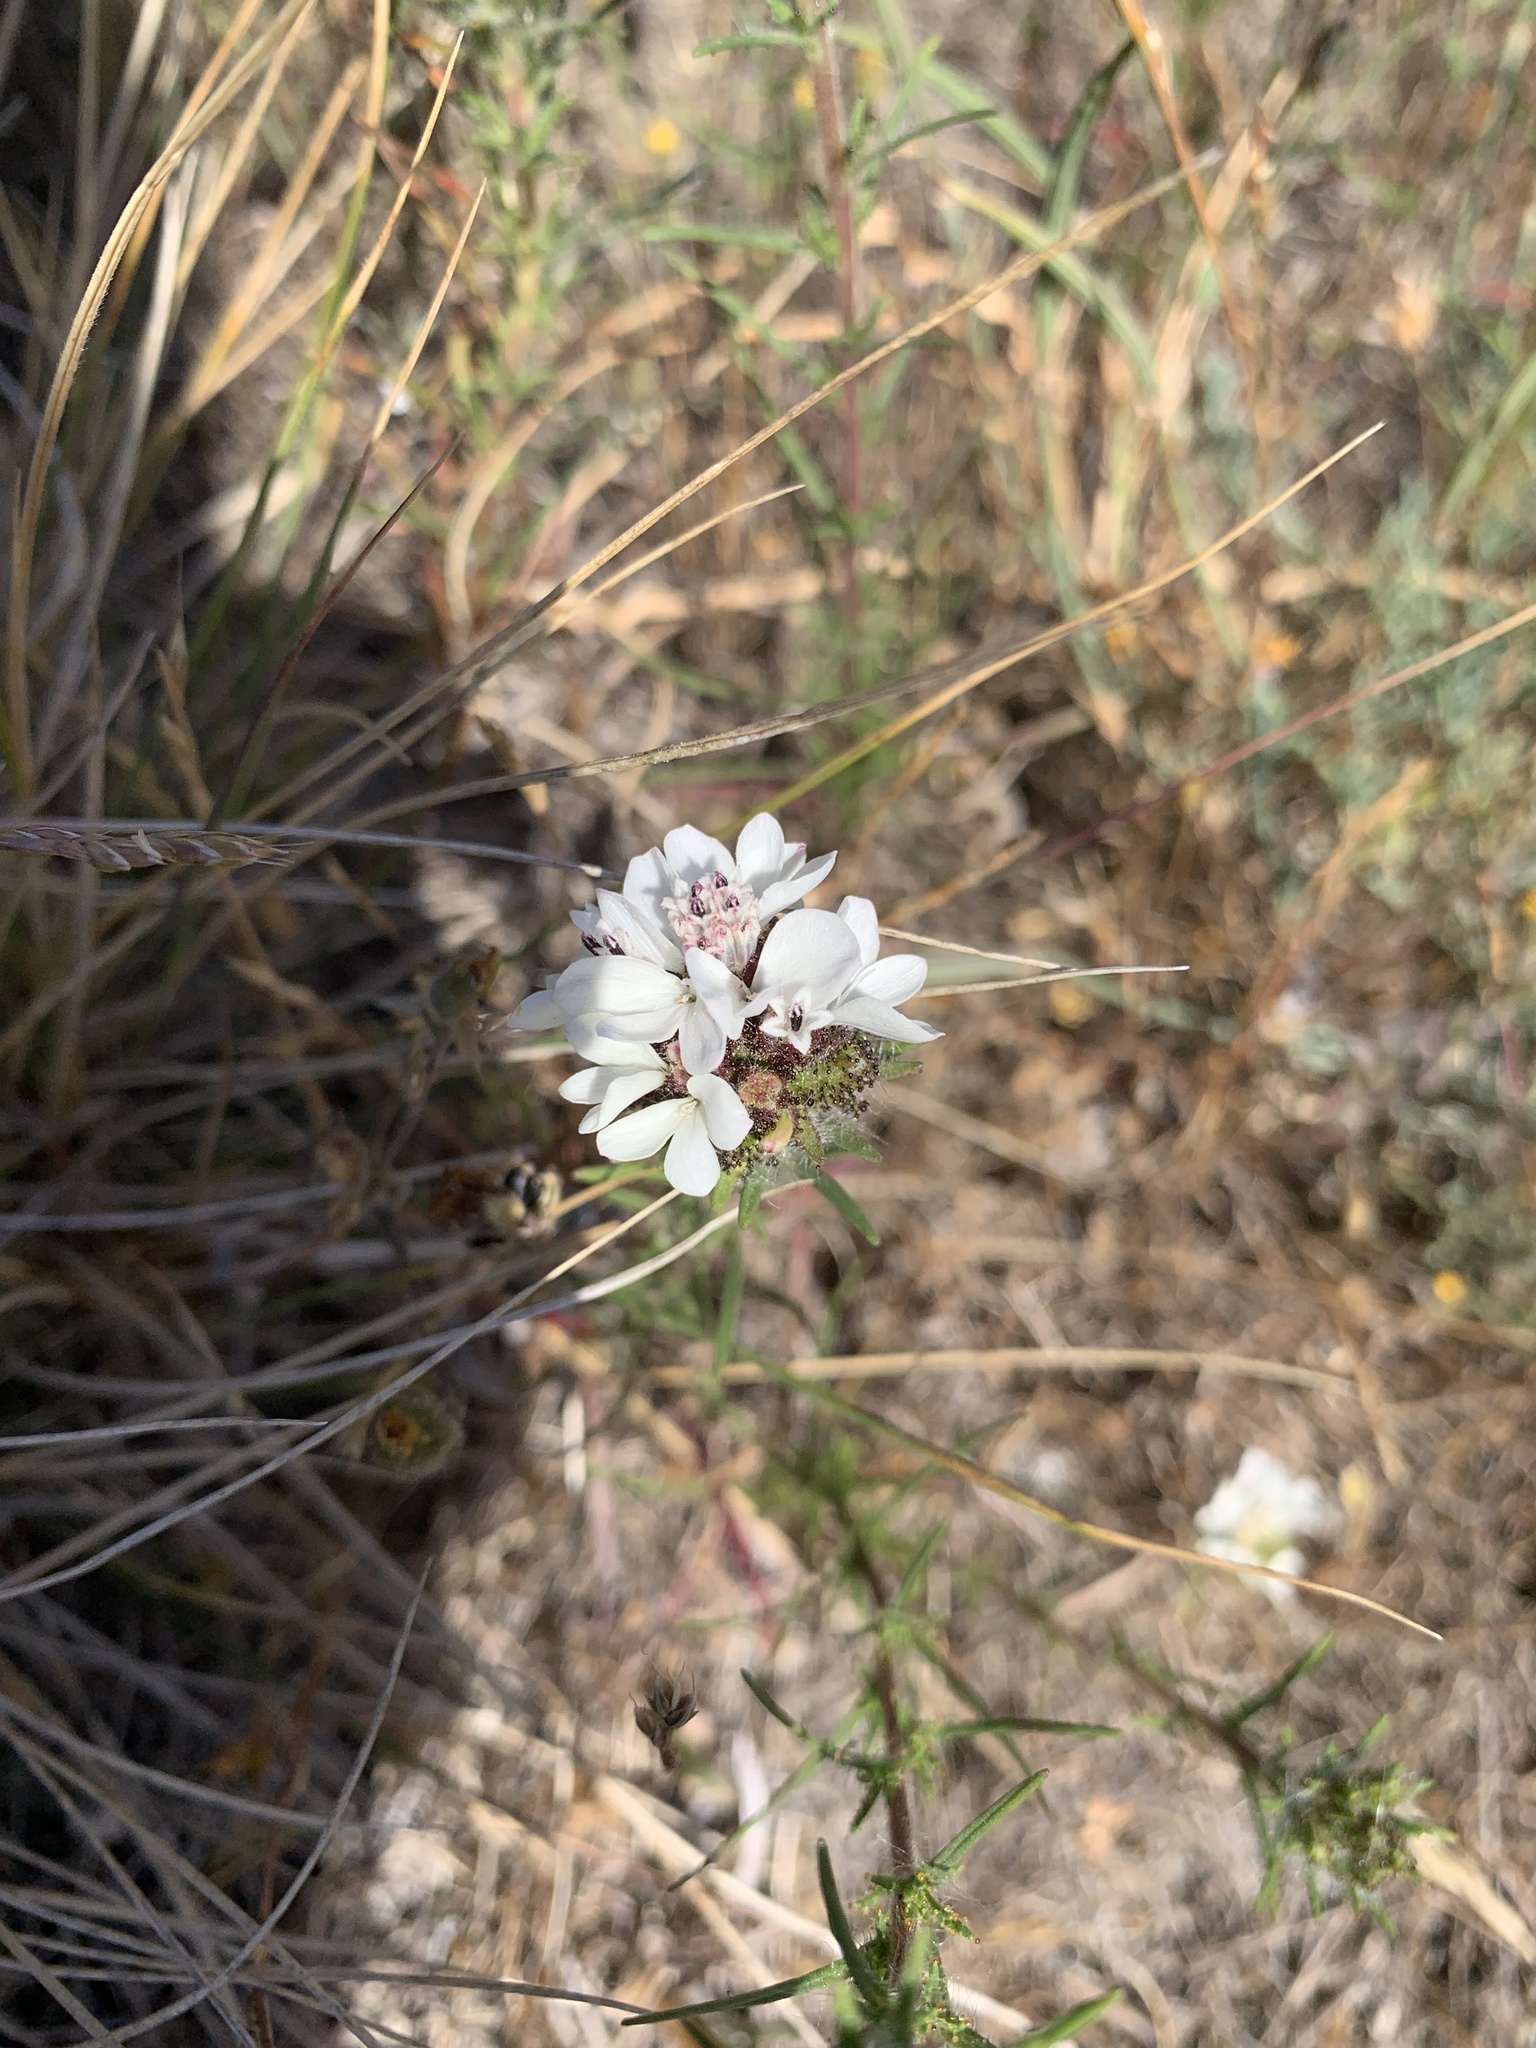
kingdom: Plantae
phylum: Tracheophyta
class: Magnoliopsida
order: Asterales
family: Asteraceae
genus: Calycadenia
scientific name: Calycadenia multiglandulosa
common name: Sticky calycadenia
